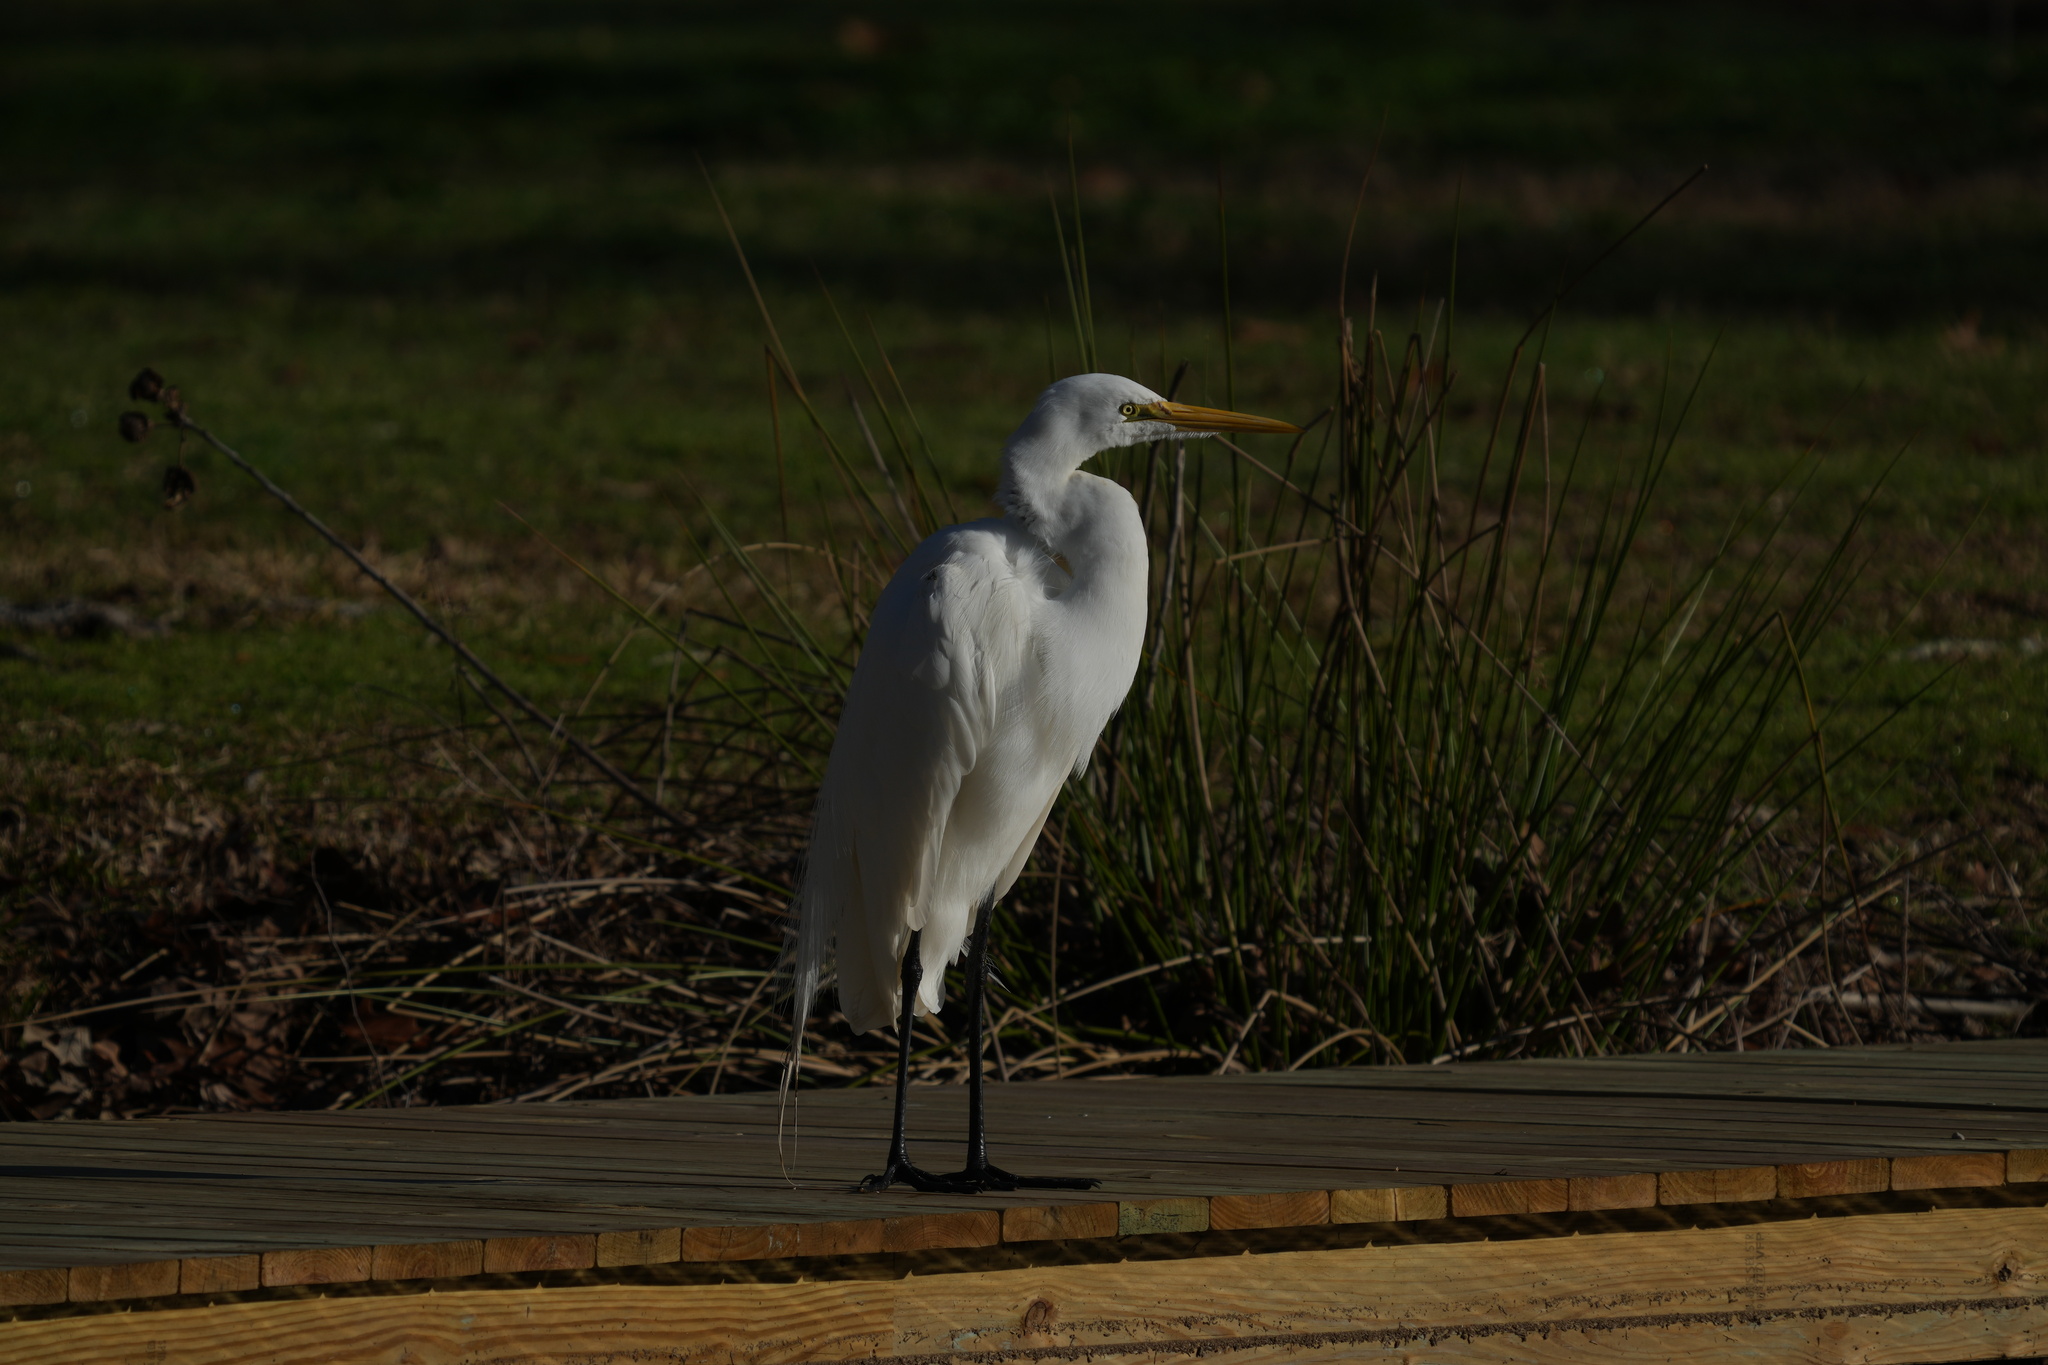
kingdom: Animalia
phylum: Chordata
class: Aves
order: Pelecaniformes
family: Ardeidae
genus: Ardea
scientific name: Ardea alba
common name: Great egret
